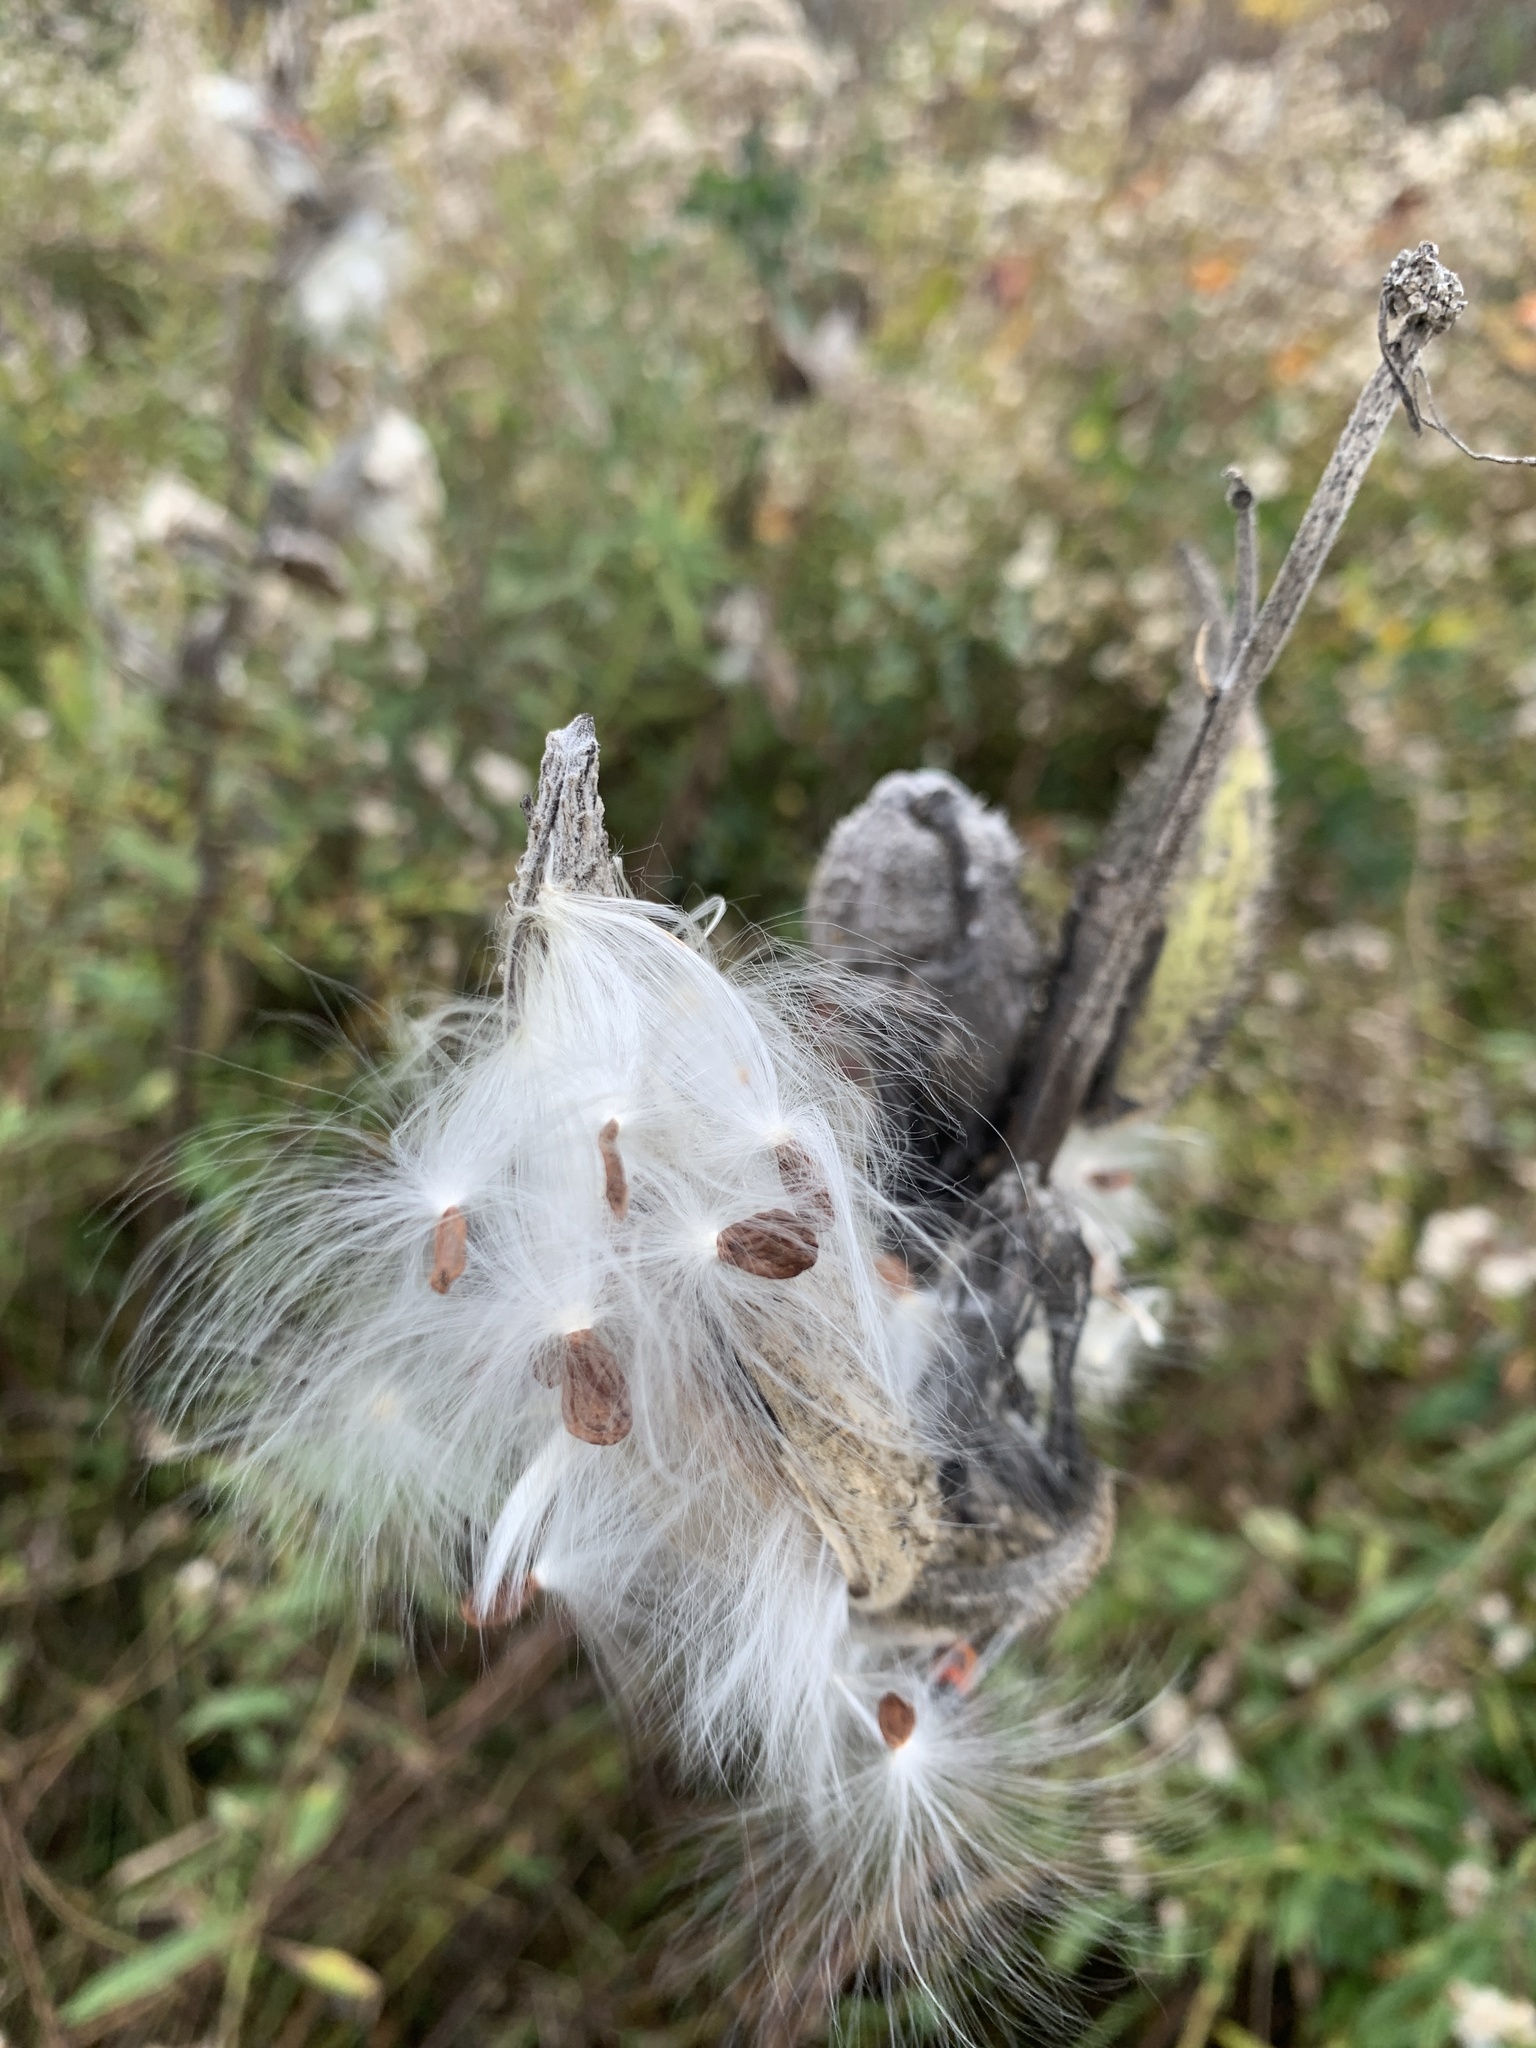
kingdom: Plantae
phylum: Tracheophyta
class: Magnoliopsida
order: Gentianales
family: Apocynaceae
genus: Asclepias
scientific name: Asclepias syriaca
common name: Common milkweed
